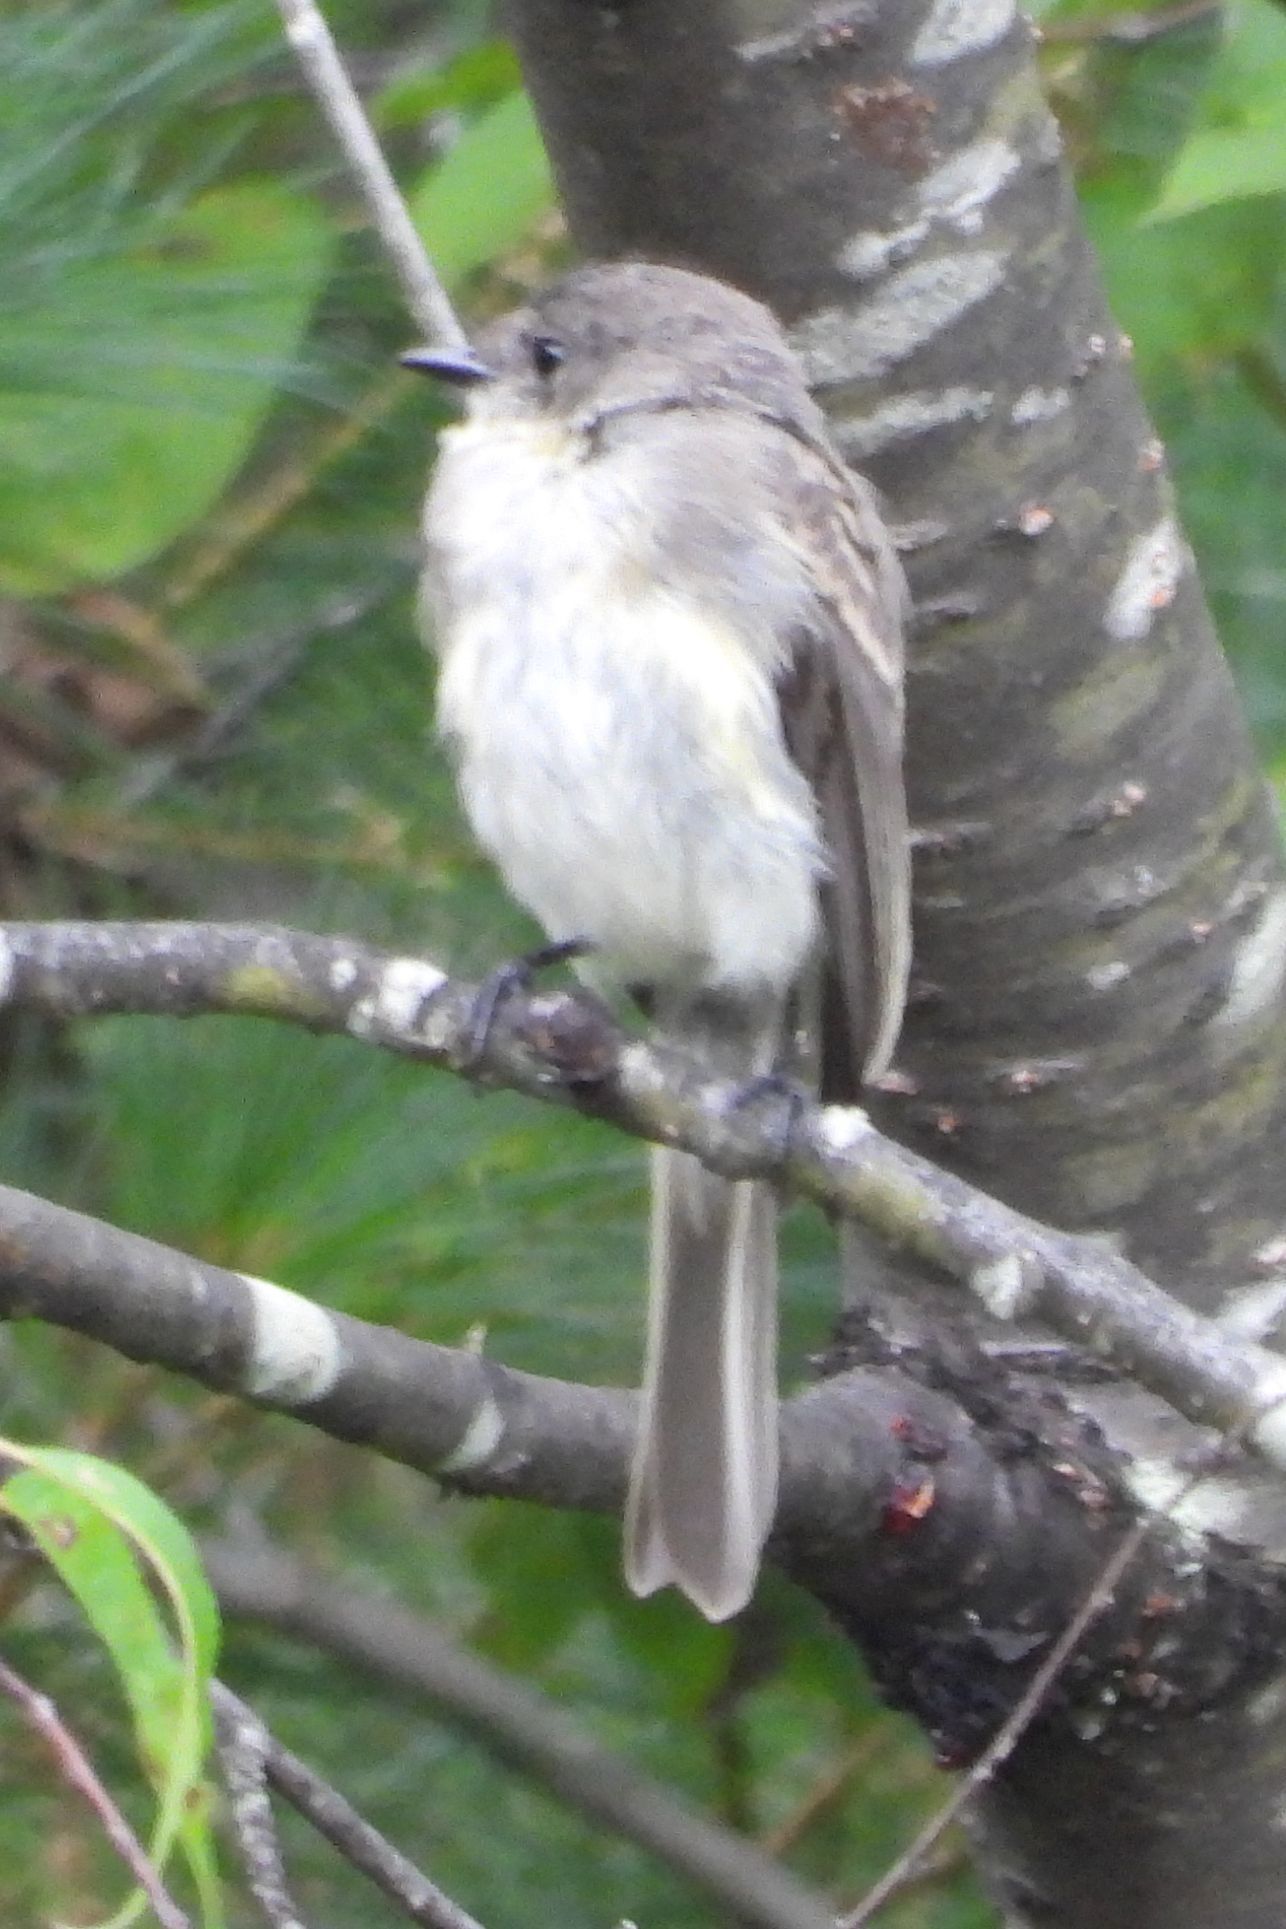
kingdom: Animalia
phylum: Chordata
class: Aves
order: Passeriformes
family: Tyrannidae
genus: Sayornis
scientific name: Sayornis phoebe
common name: Eastern phoebe
